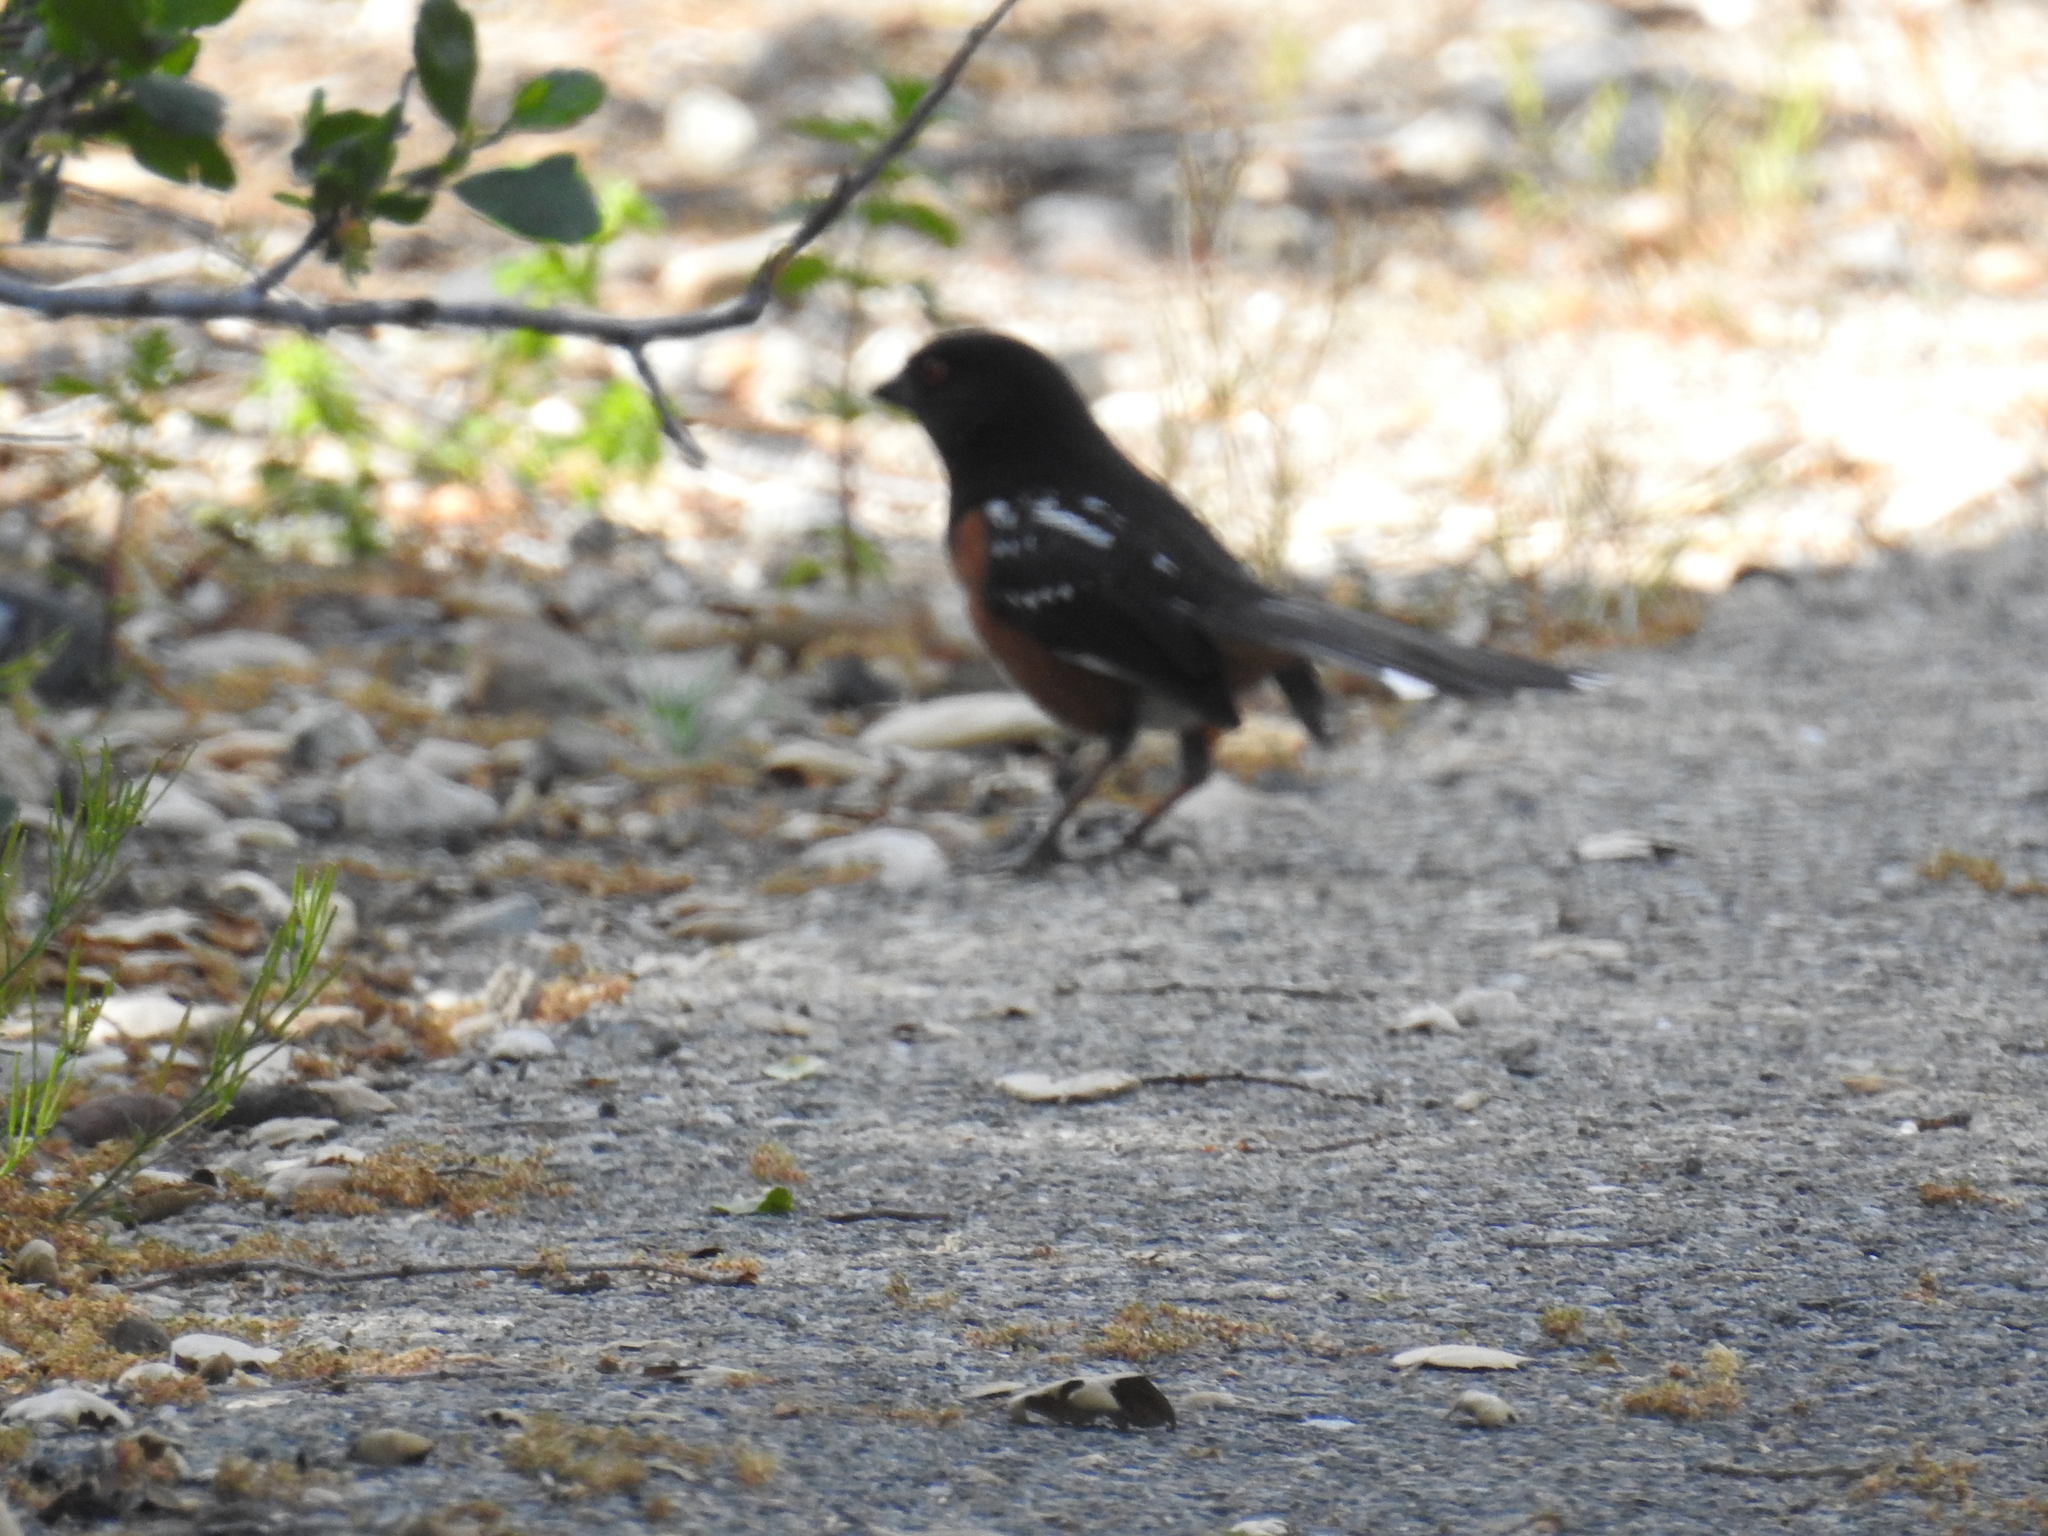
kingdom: Animalia
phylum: Chordata
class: Aves
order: Passeriformes
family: Passerellidae
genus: Pipilo
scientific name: Pipilo maculatus
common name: Spotted towhee
